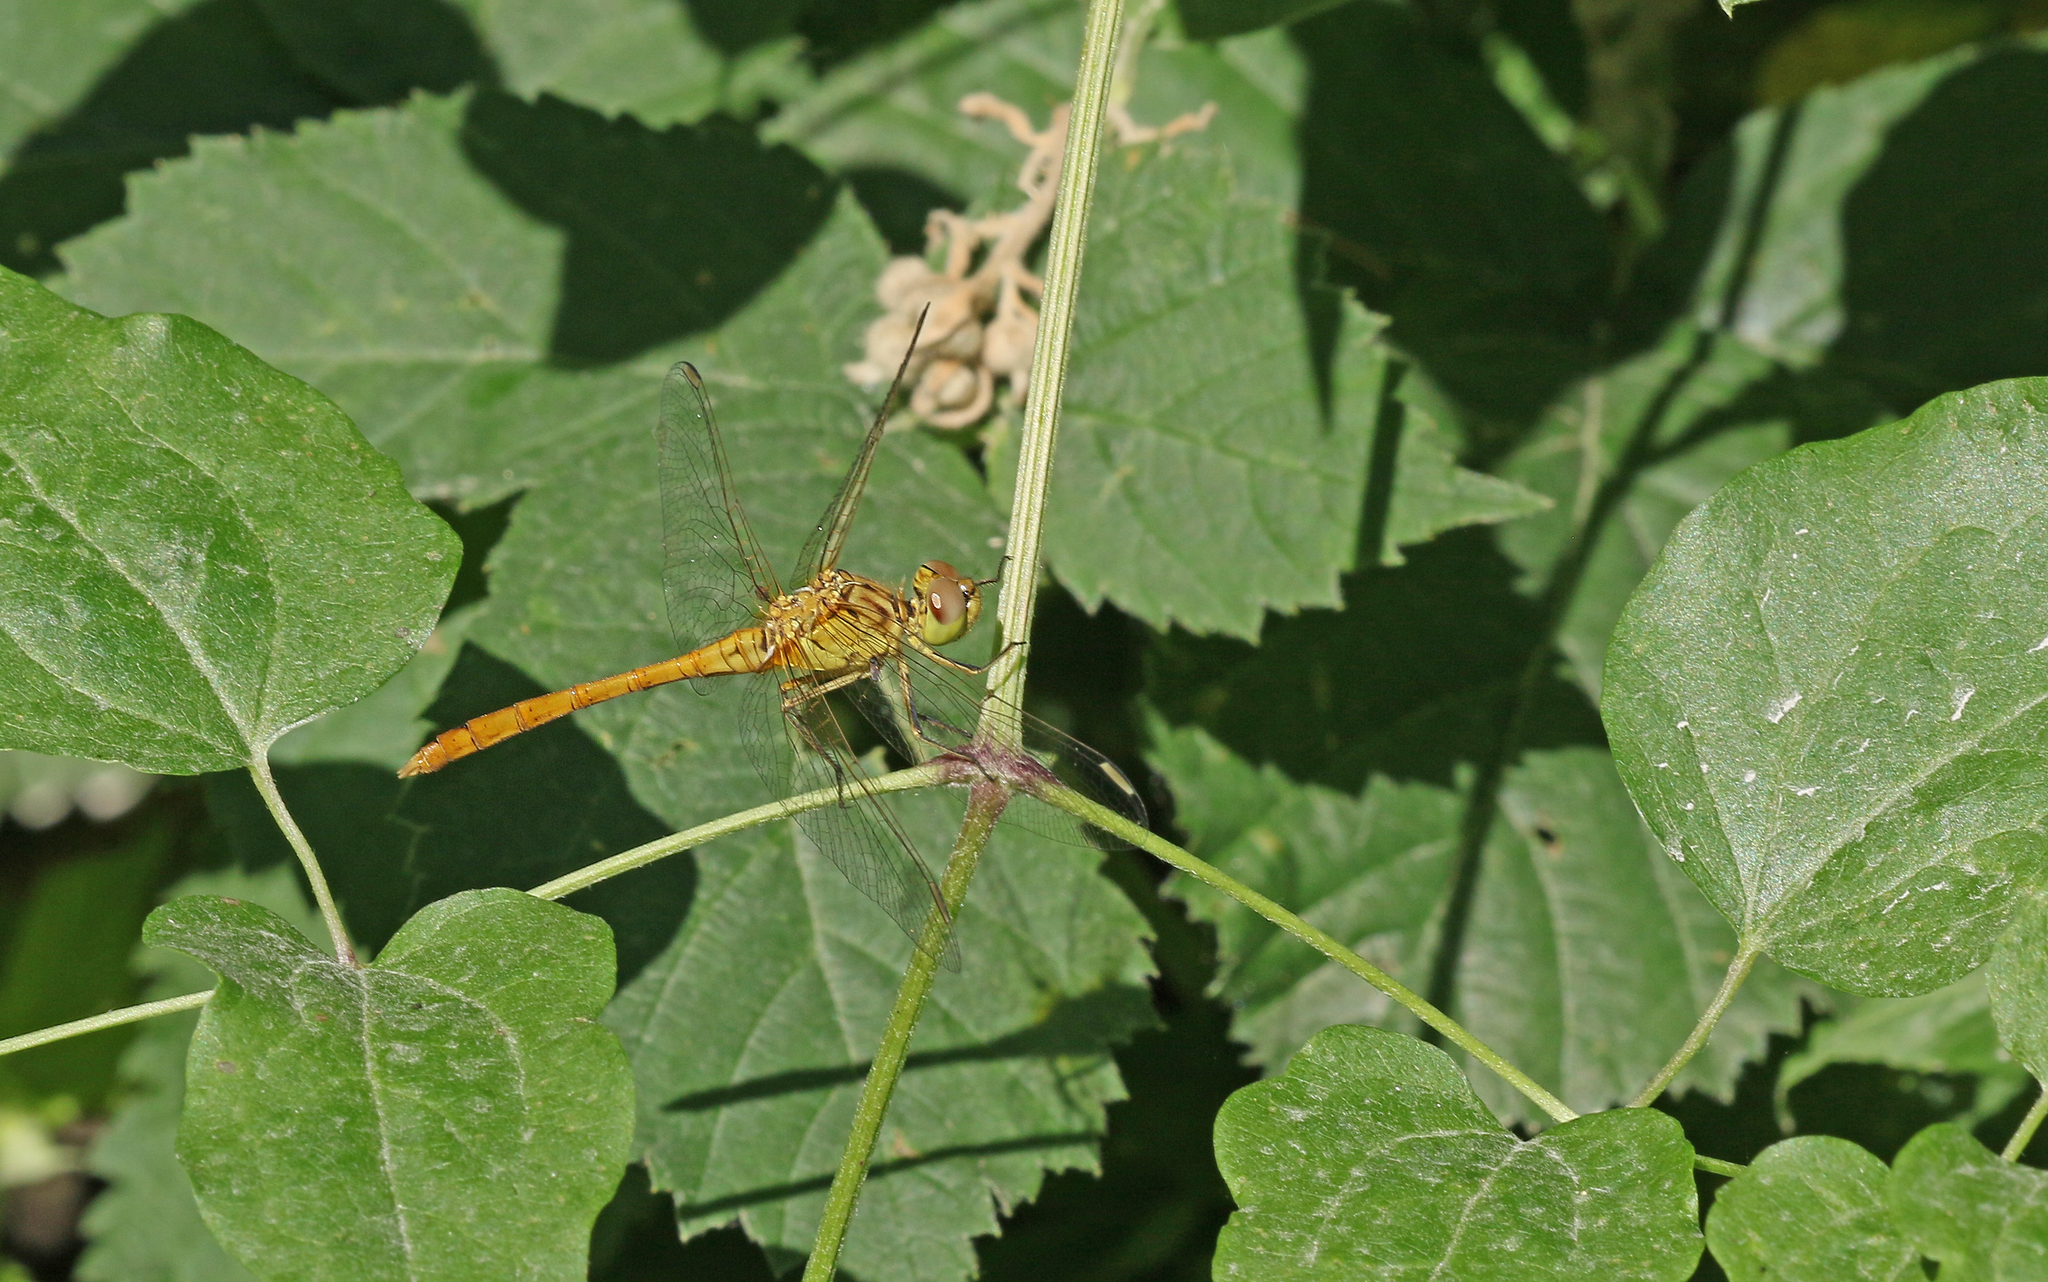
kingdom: Animalia
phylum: Arthropoda
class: Insecta
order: Odonata
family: Libellulidae
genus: Sympetrum
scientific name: Sympetrum meridionale
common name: Southern darter
